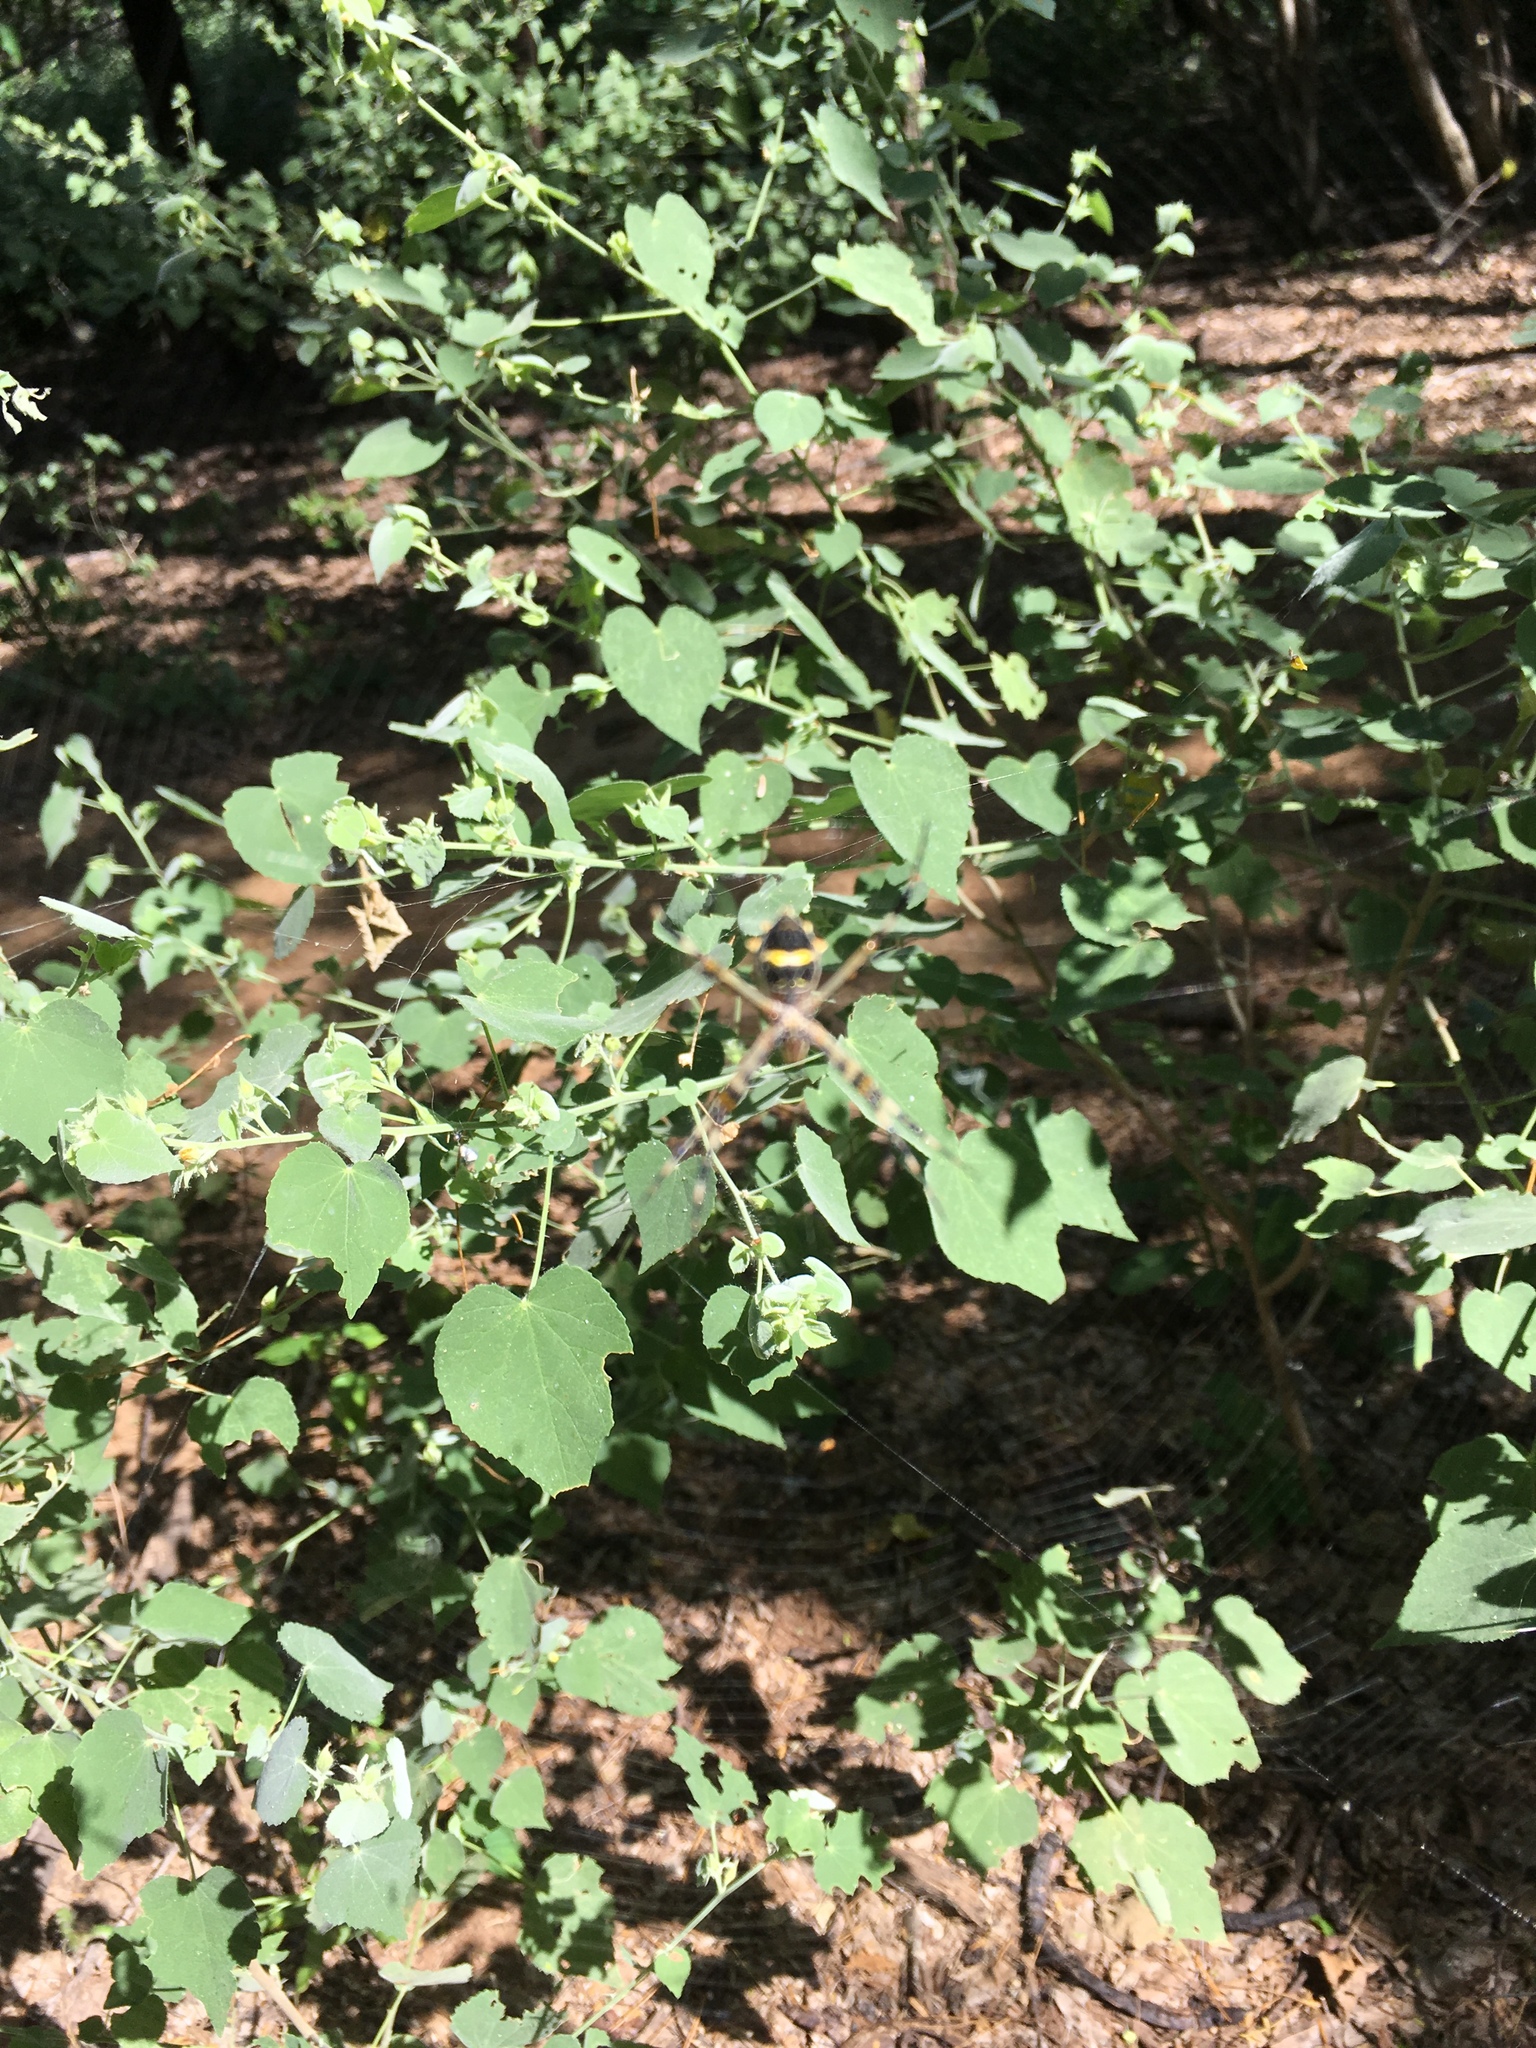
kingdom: Animalia
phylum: Arthropoda
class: Arachnida
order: Araneae
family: Araneidae
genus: Argiope
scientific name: Argiope argentata
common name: Orb weavers
